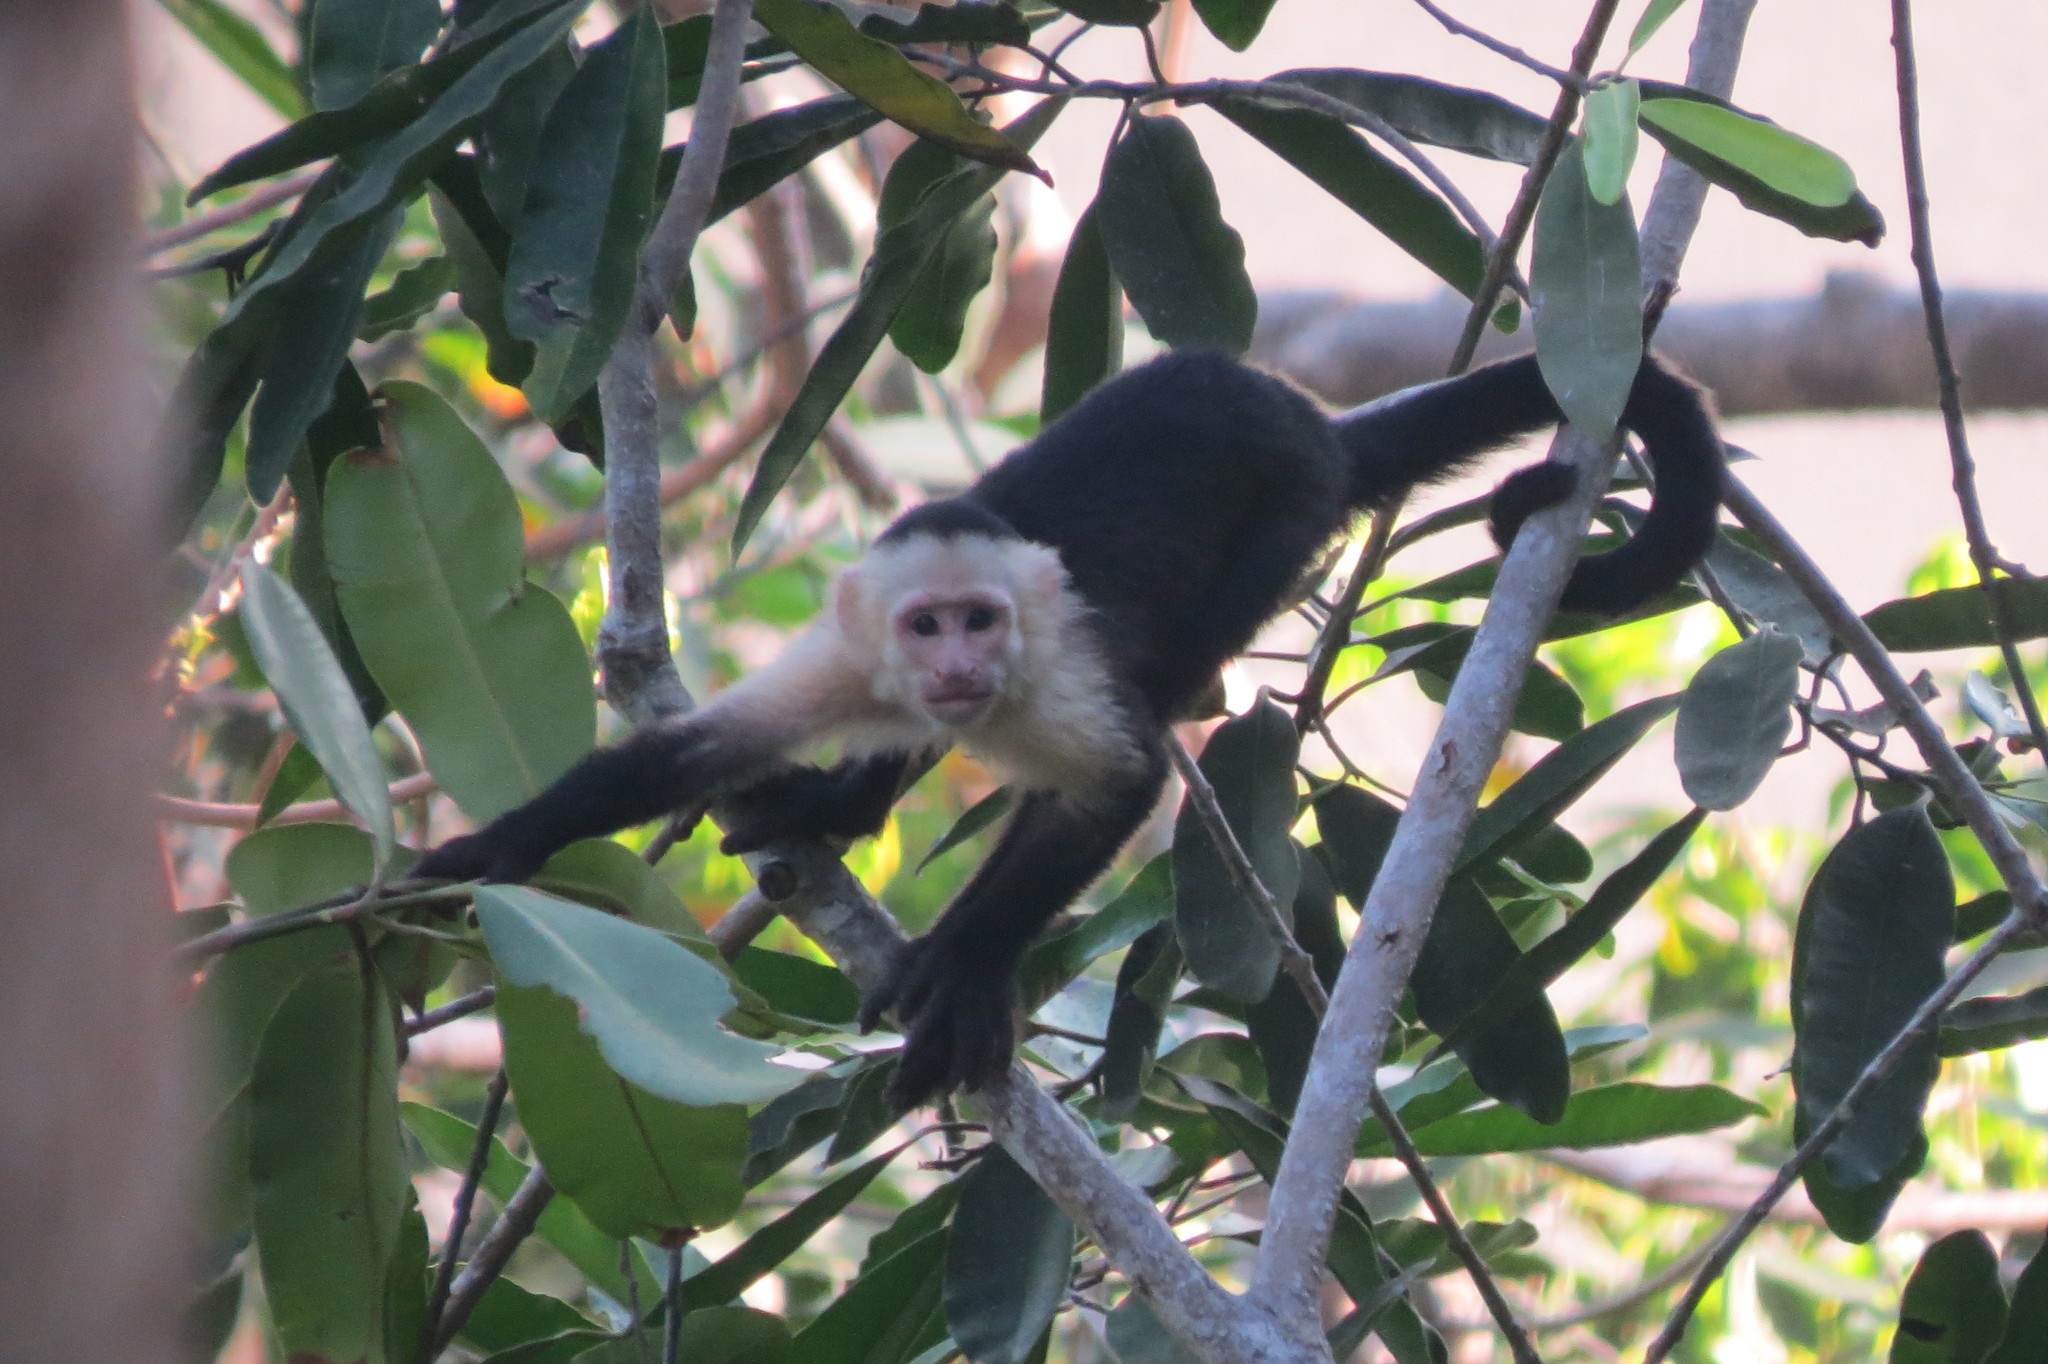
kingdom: Animalia
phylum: Chordata
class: Mammalia
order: Primates
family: Cebidae
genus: Cebus
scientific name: Cebus imitator
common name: Panamanian white-faced capuchin
